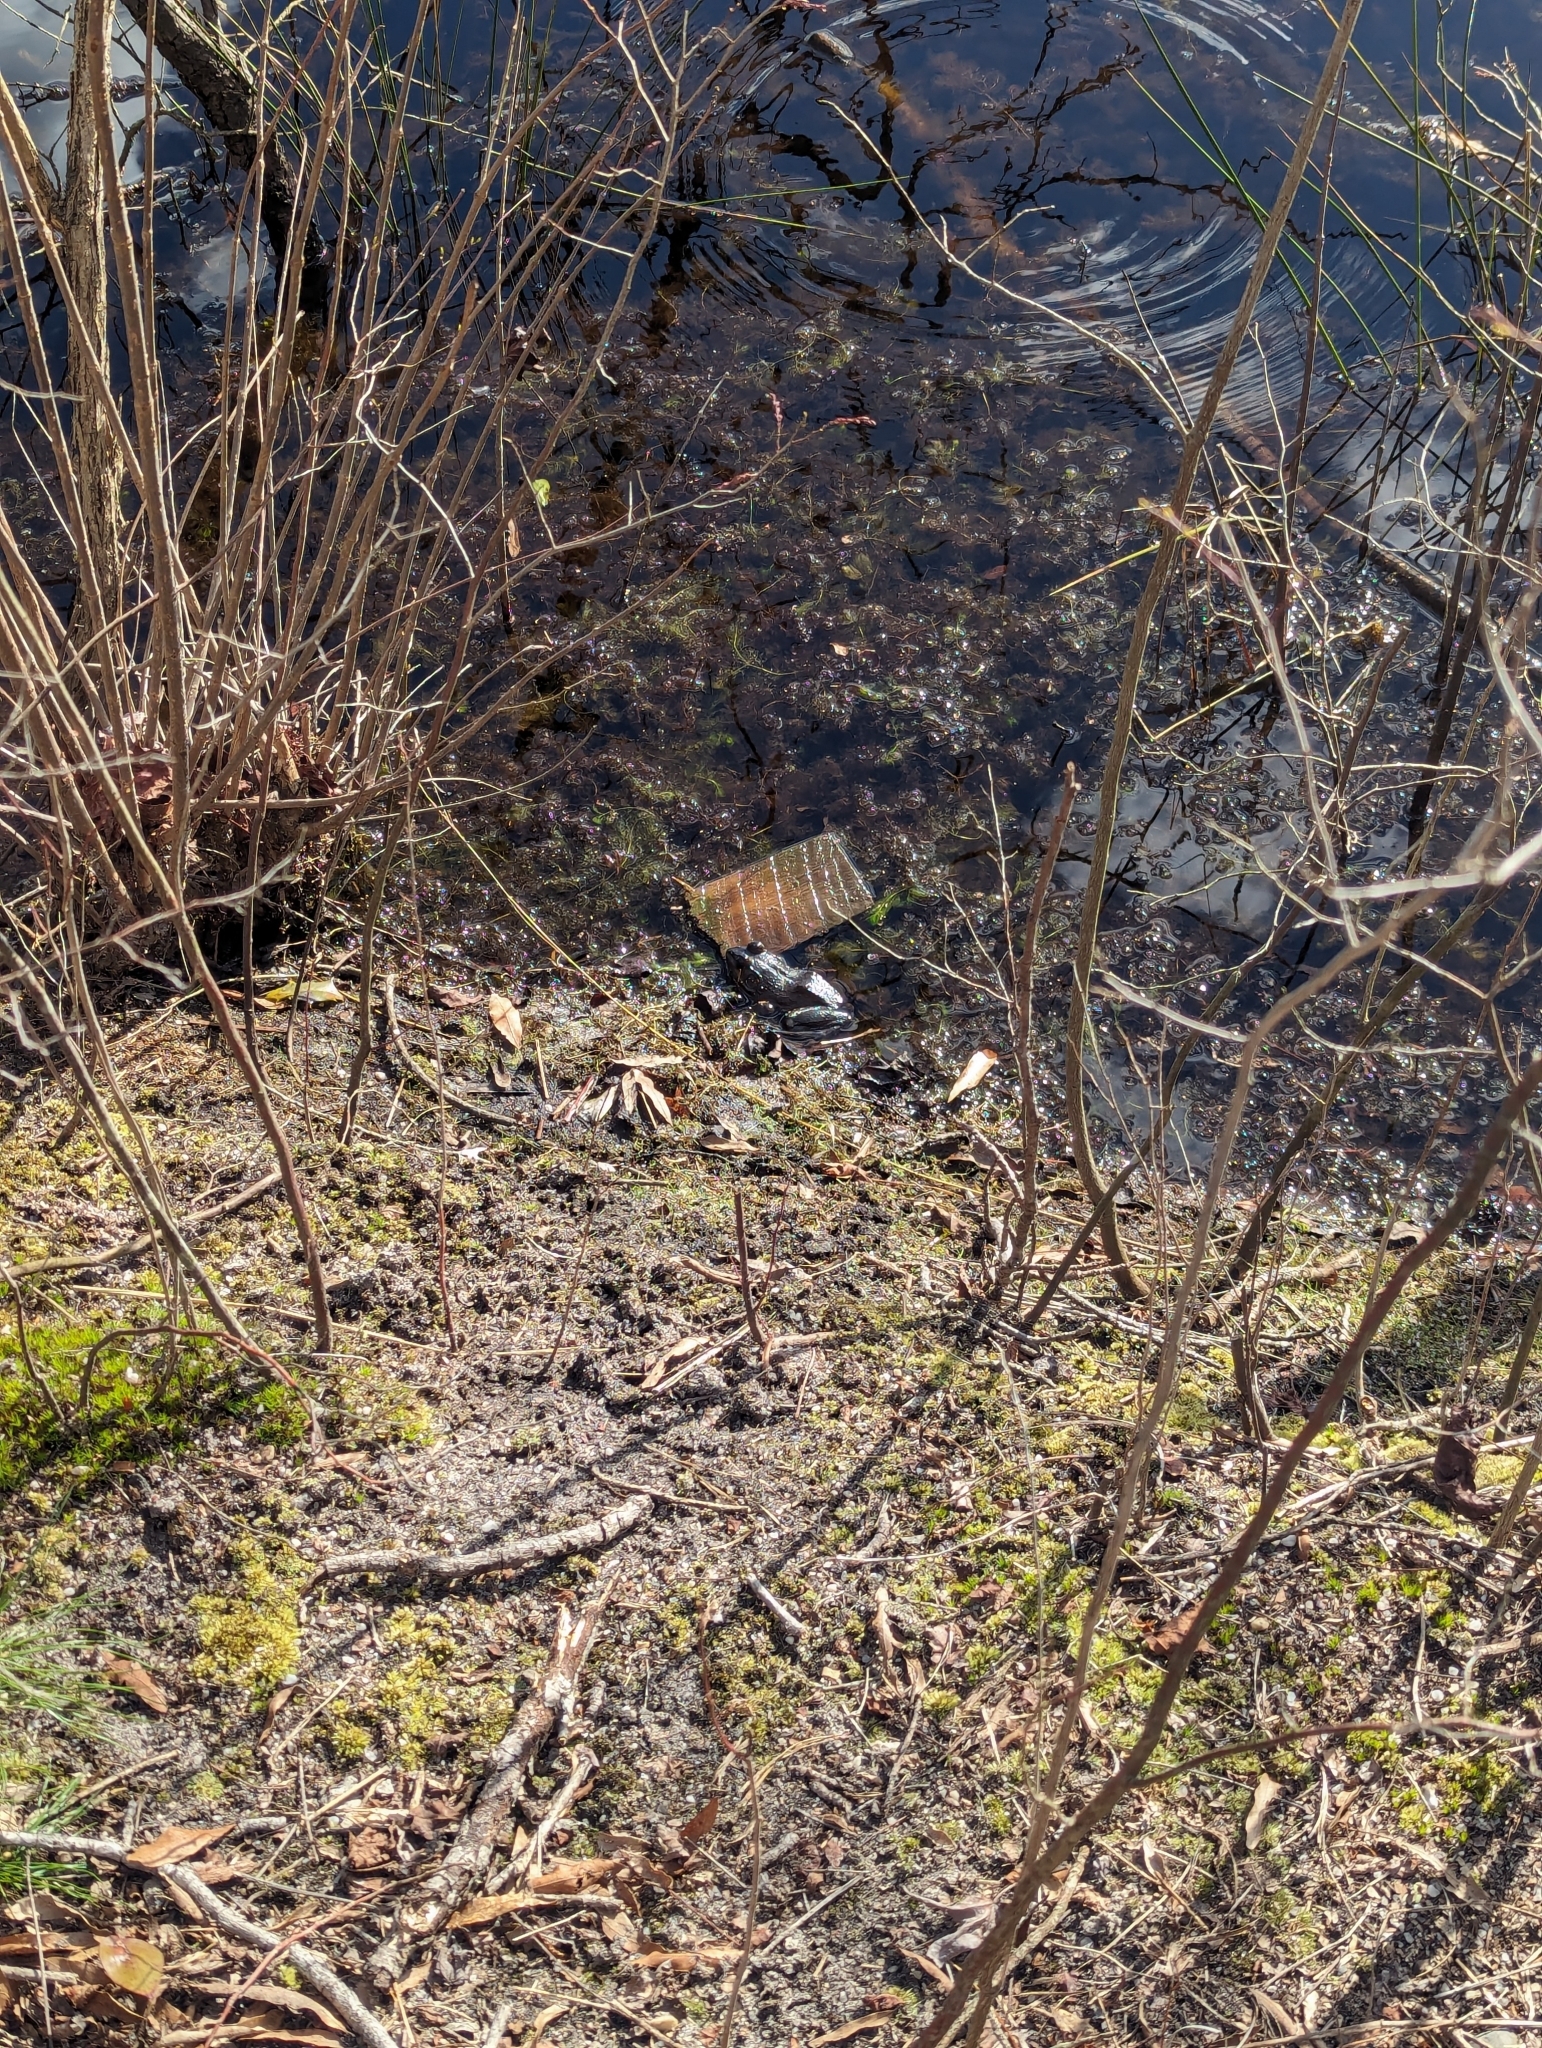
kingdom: Animalia
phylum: Chordata
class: Amphibia
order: Anura
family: Ranidae
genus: Lithobates
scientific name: Lithobates catesbeianus
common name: American bullfrog
